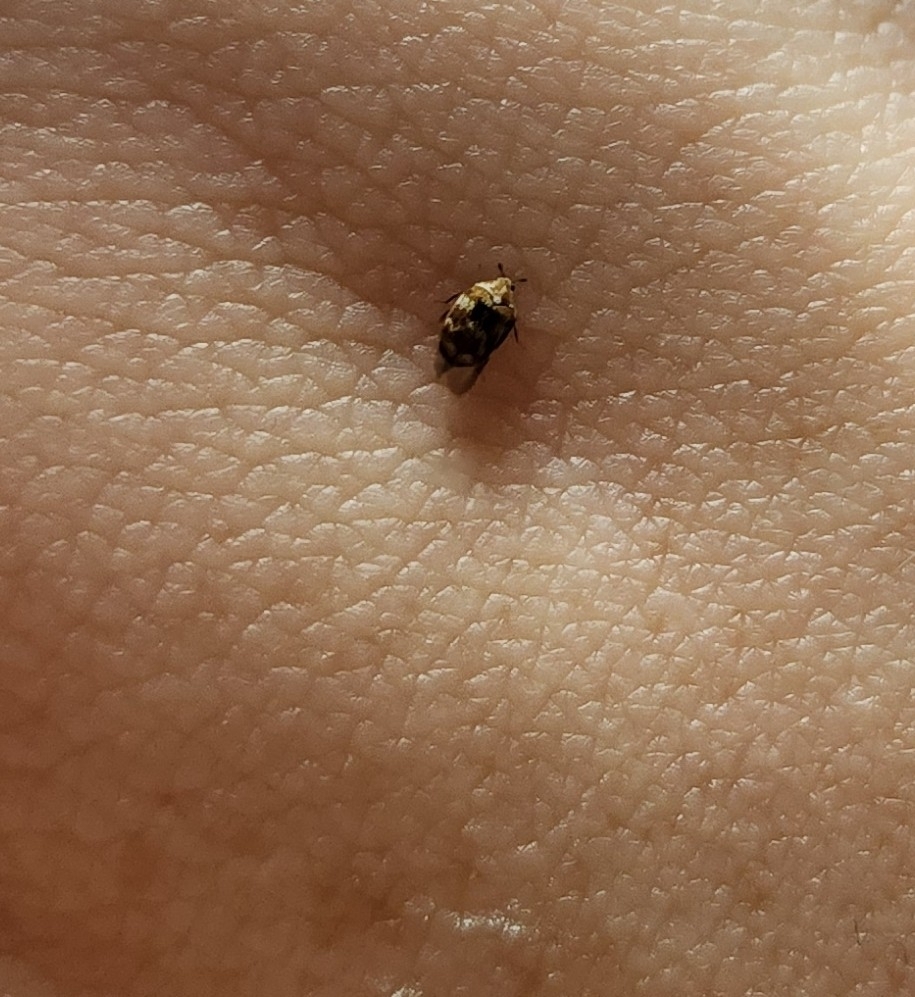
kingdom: Animalia
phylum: Arthropoda
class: Insecta
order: Coleoptera
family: Dermestidae
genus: Anthrenus
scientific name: Anthrenus verbasci
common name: Varied carpet beetle
